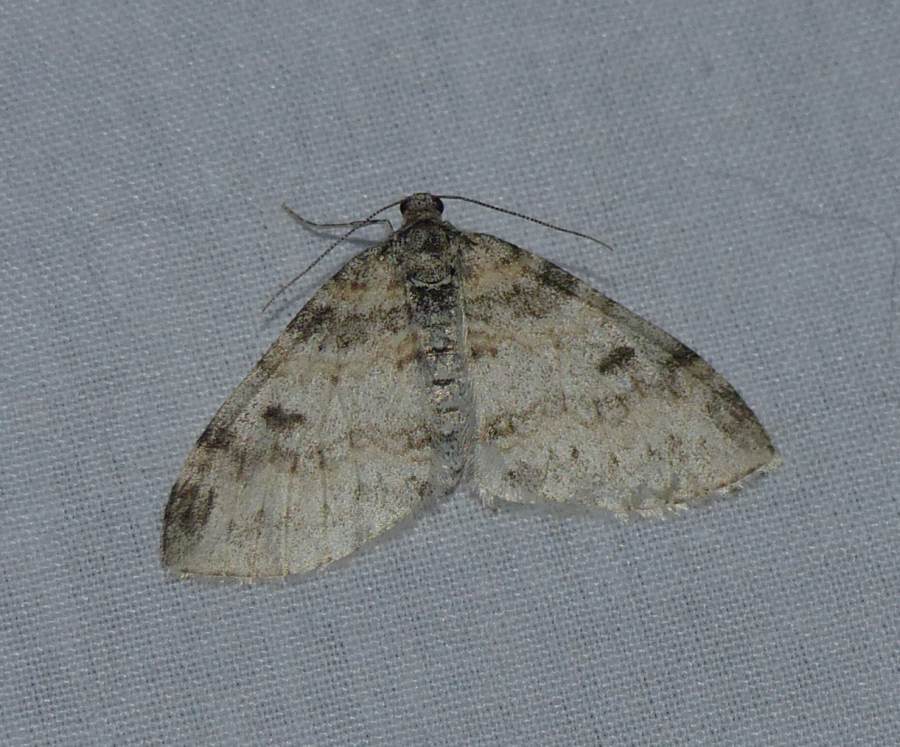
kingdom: Animalia
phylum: Arthropoda
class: Insecta
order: Lepidoptera
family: Geometridae
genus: Lobophora
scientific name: Lobophora nivigerata
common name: Powdered bigwing
